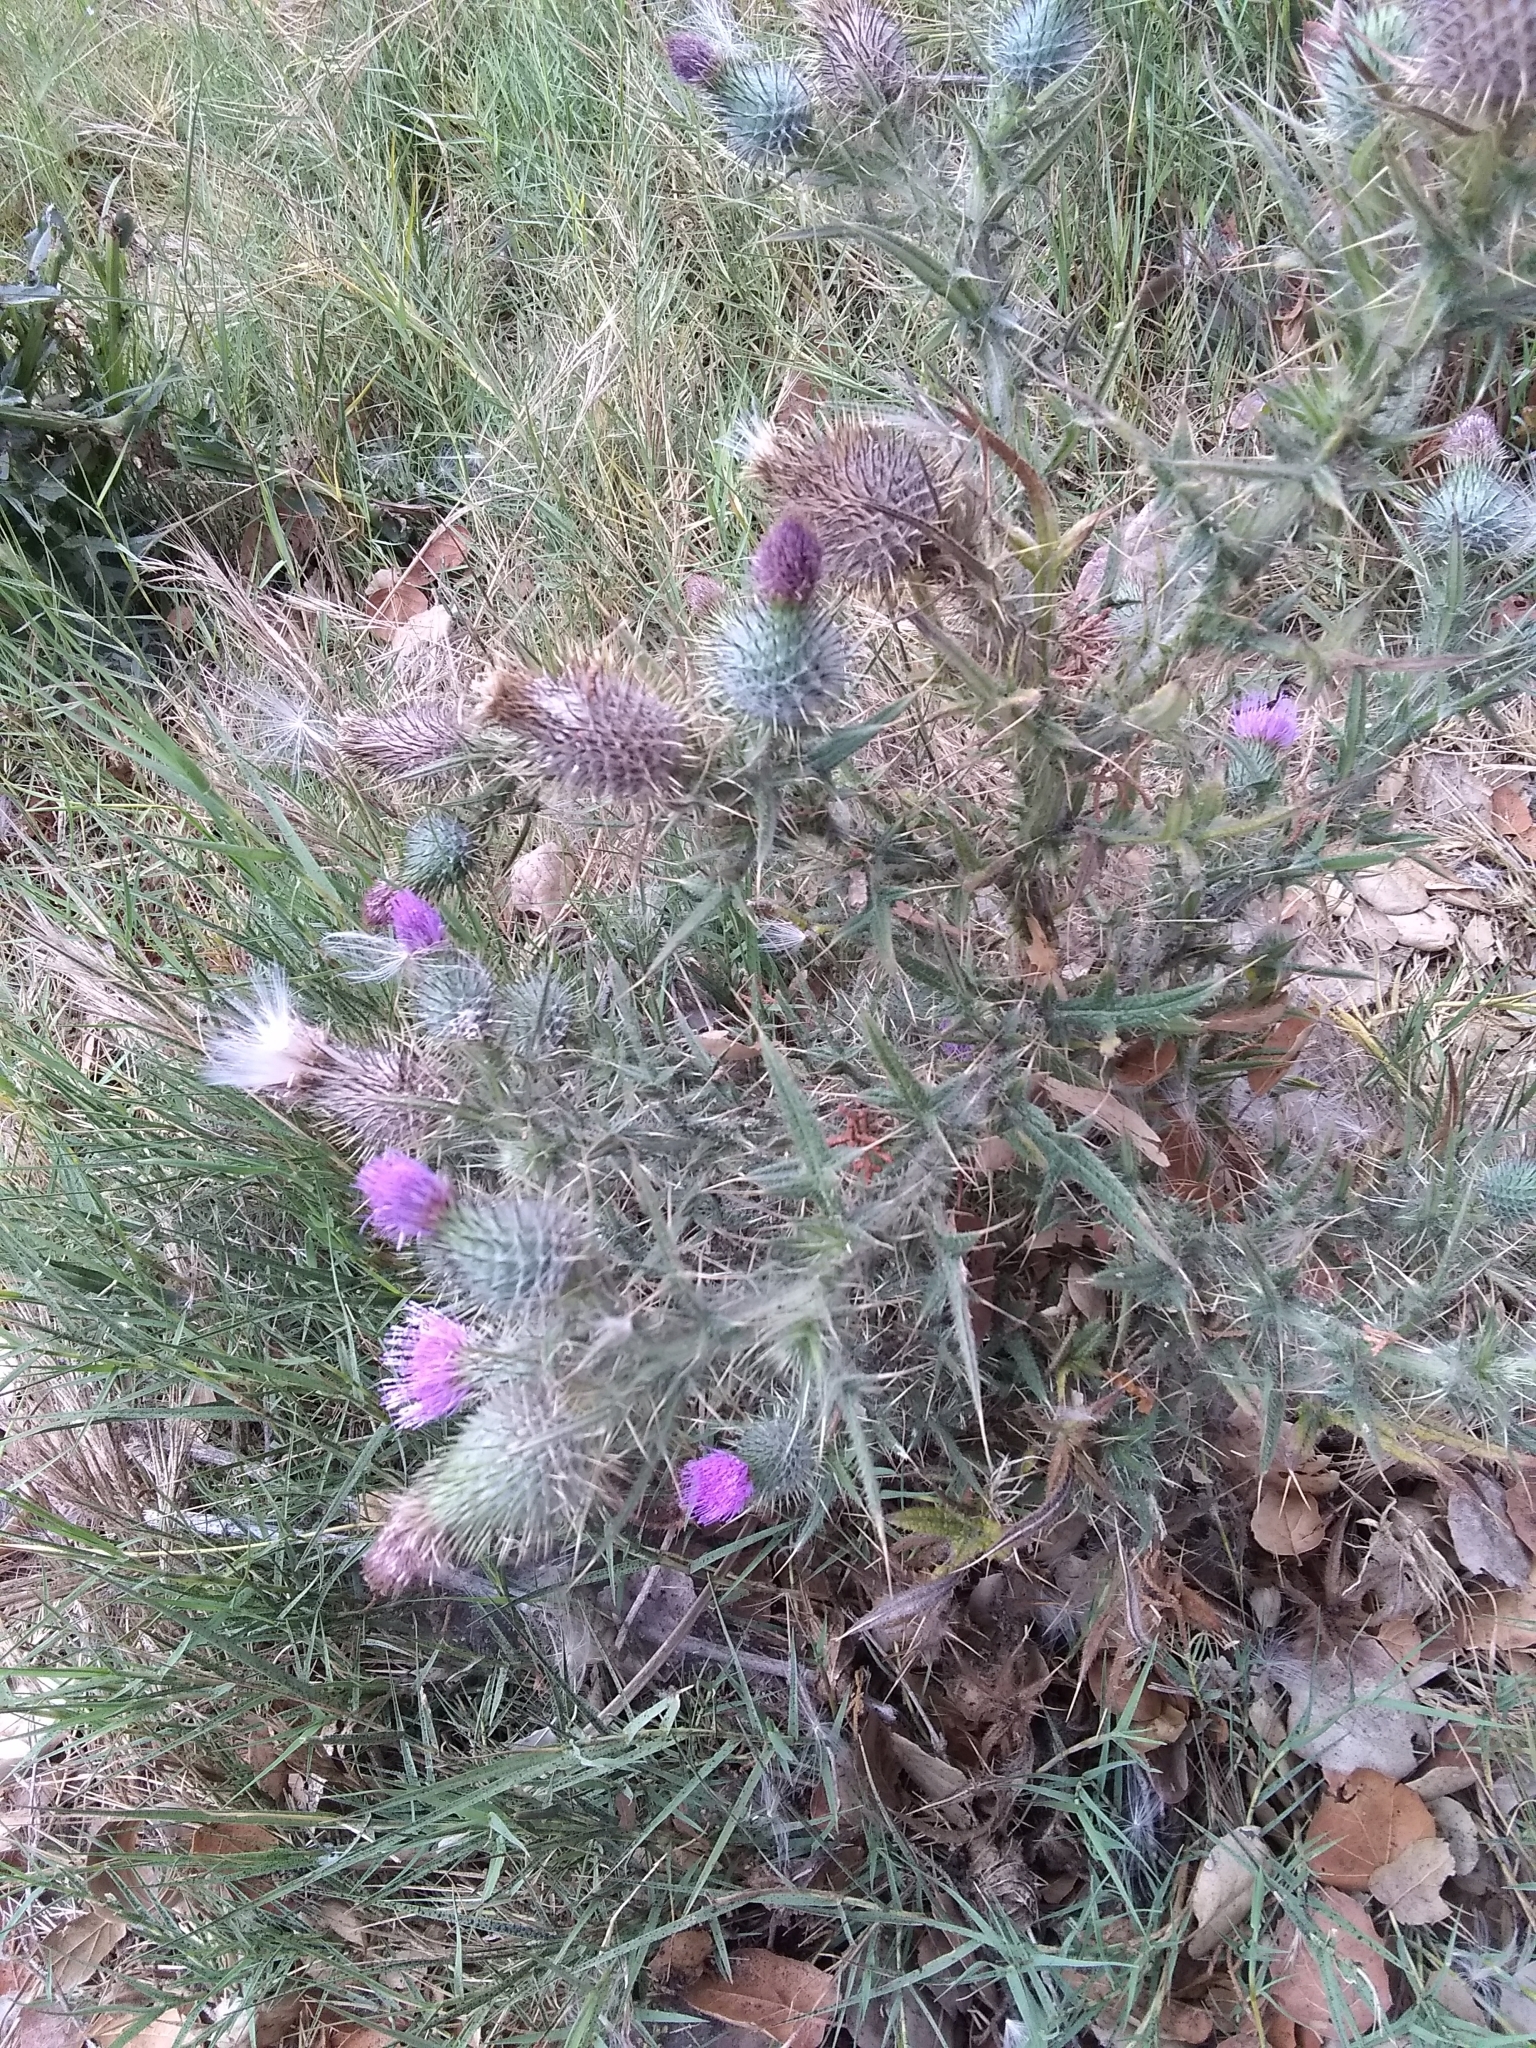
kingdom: Plantae
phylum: Tracheophyta
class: Magnoliopsida
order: Asterales
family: Asteraceae
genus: Cirsium
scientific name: Cirsium vulgare
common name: Bull thistle
